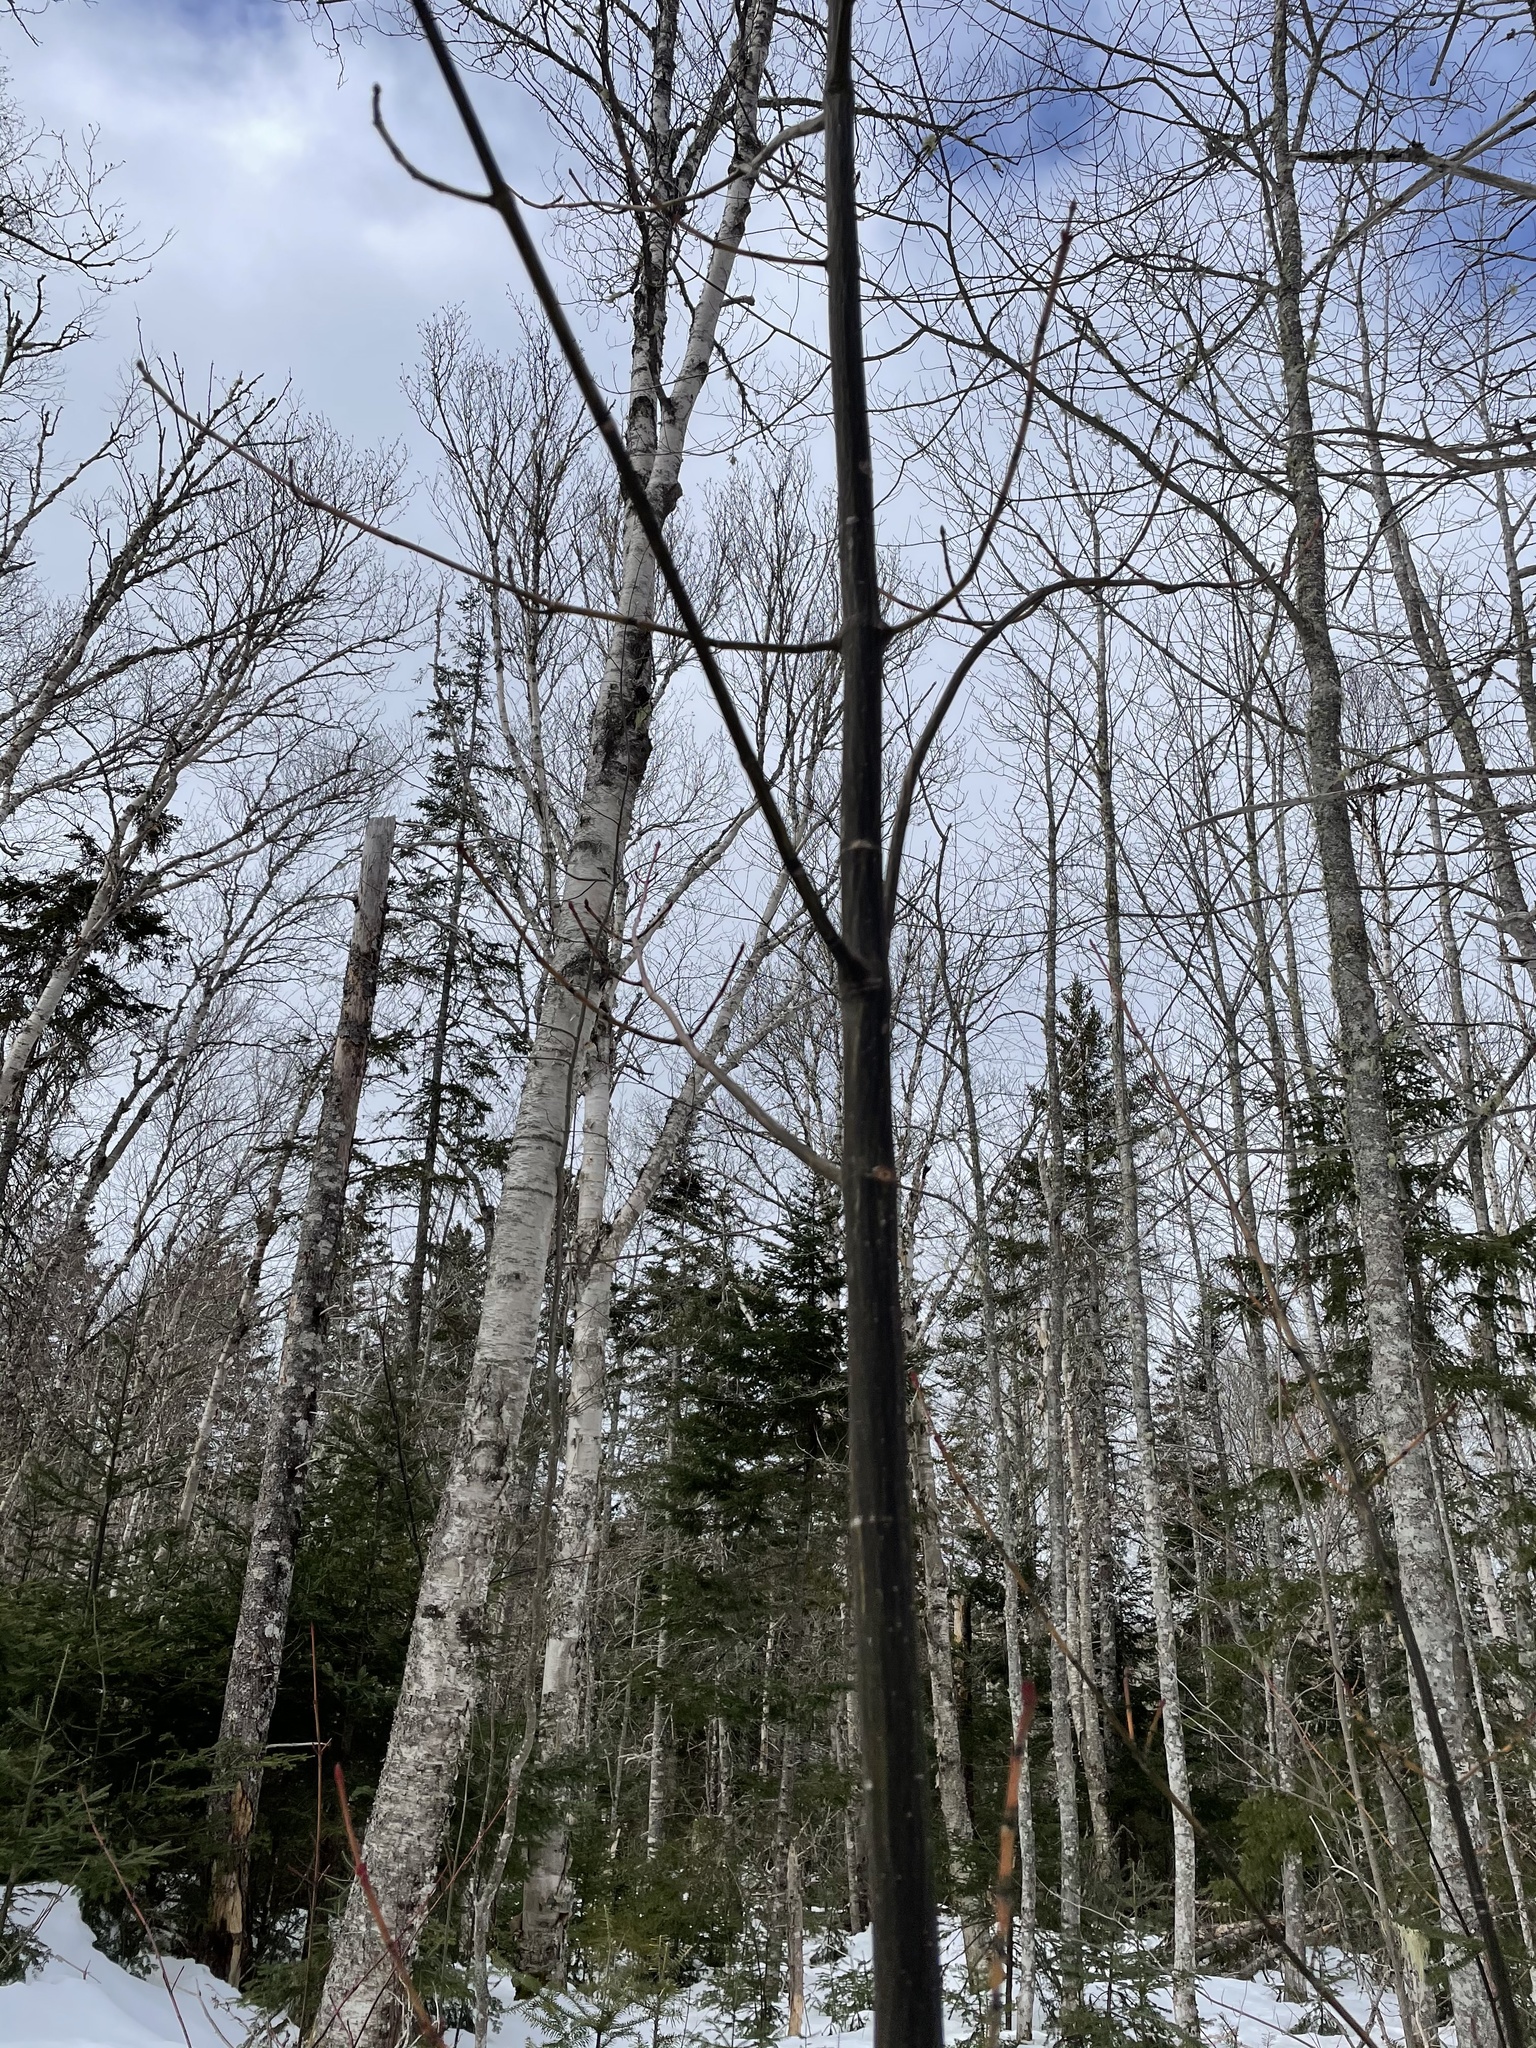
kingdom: Plantae
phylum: Tracheophyta
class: Magnoliopsida
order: Sapindales
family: Sapindaceae
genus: Acer
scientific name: Acer pensylvanicum
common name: Moosewood
